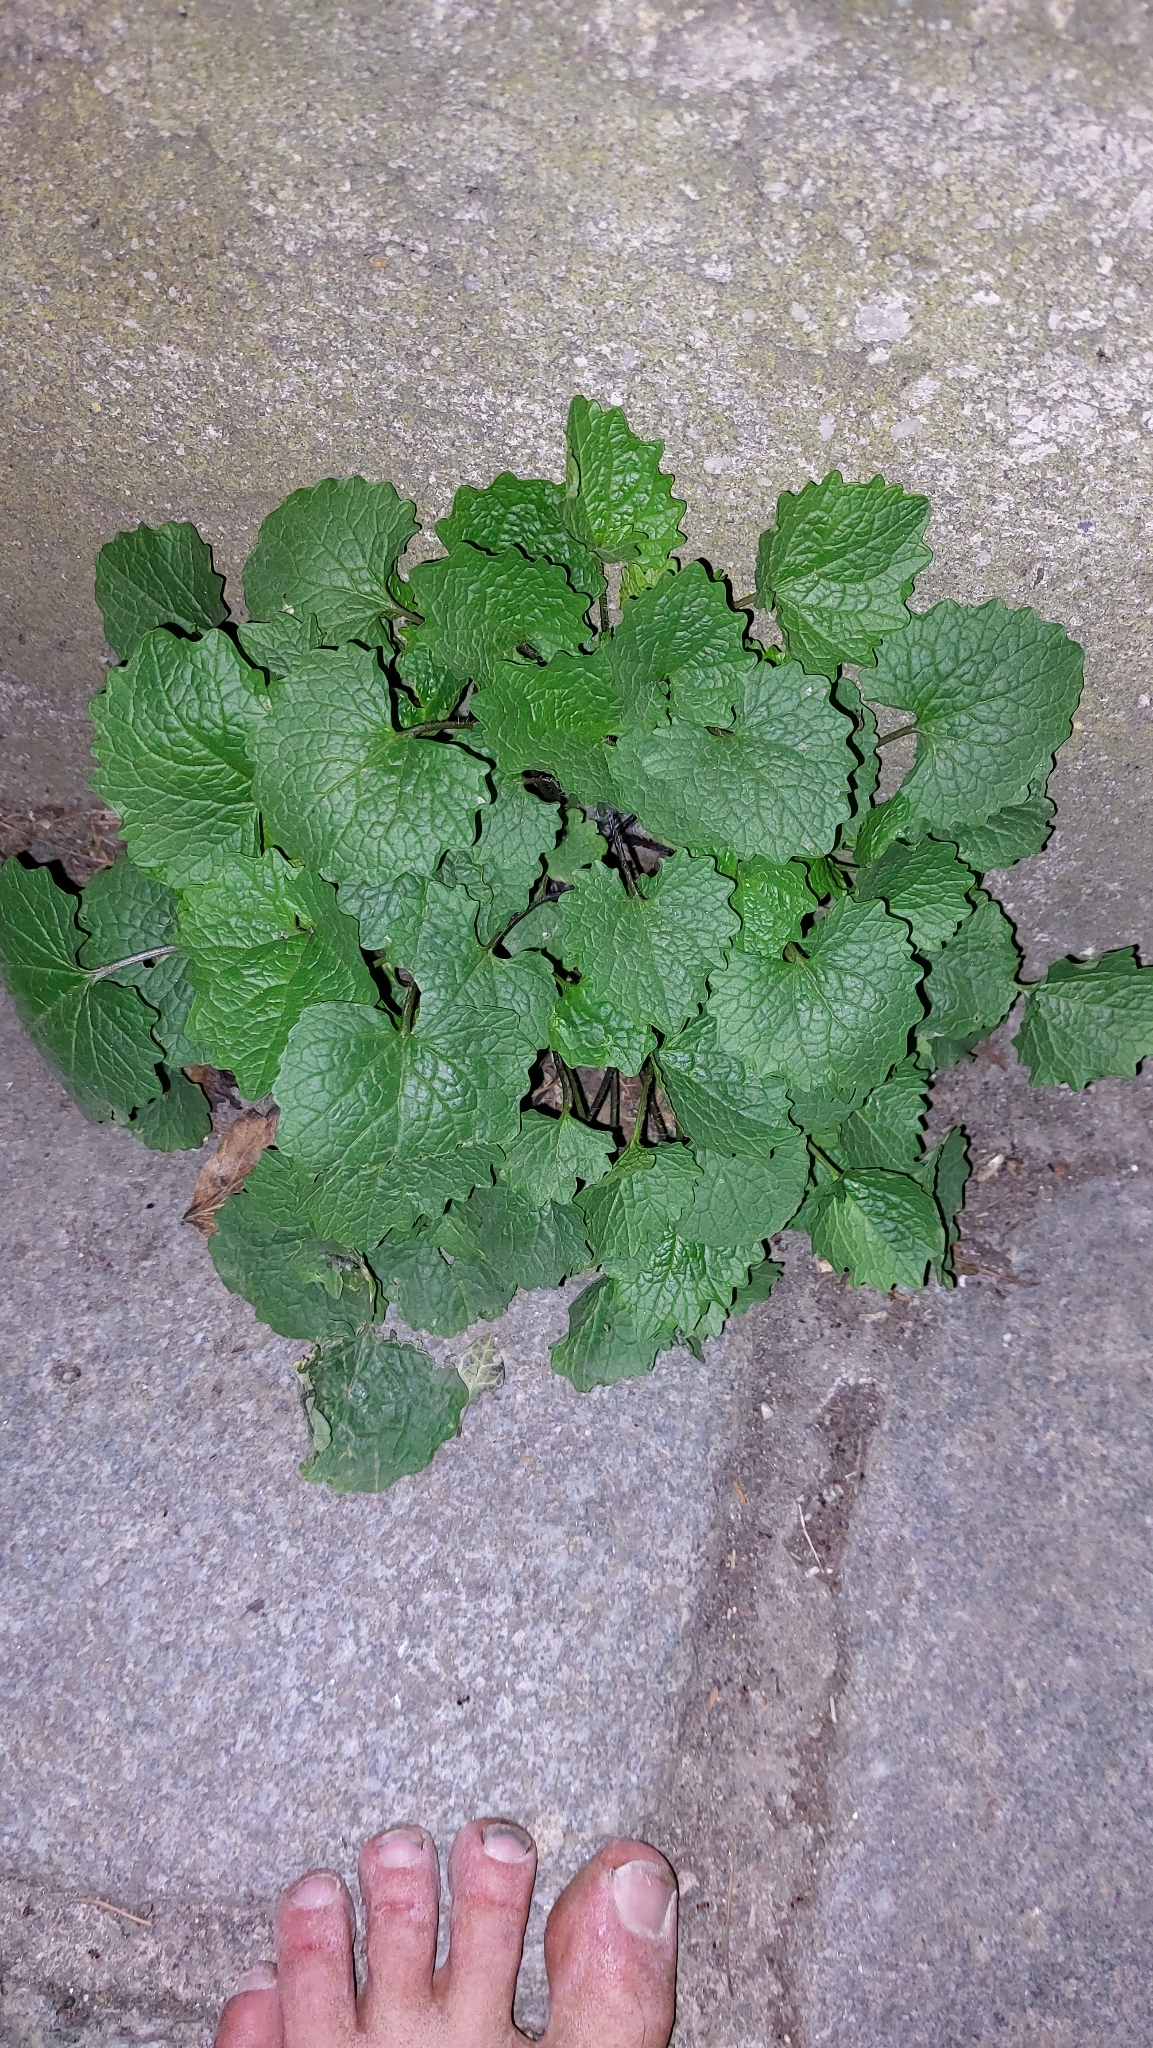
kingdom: Plantae
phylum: Tracheophyta
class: Magnoliopsida
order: Brassicales
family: Brassicaceae
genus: Alliaria
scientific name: Alliaria petiolata
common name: Garlic mustard
